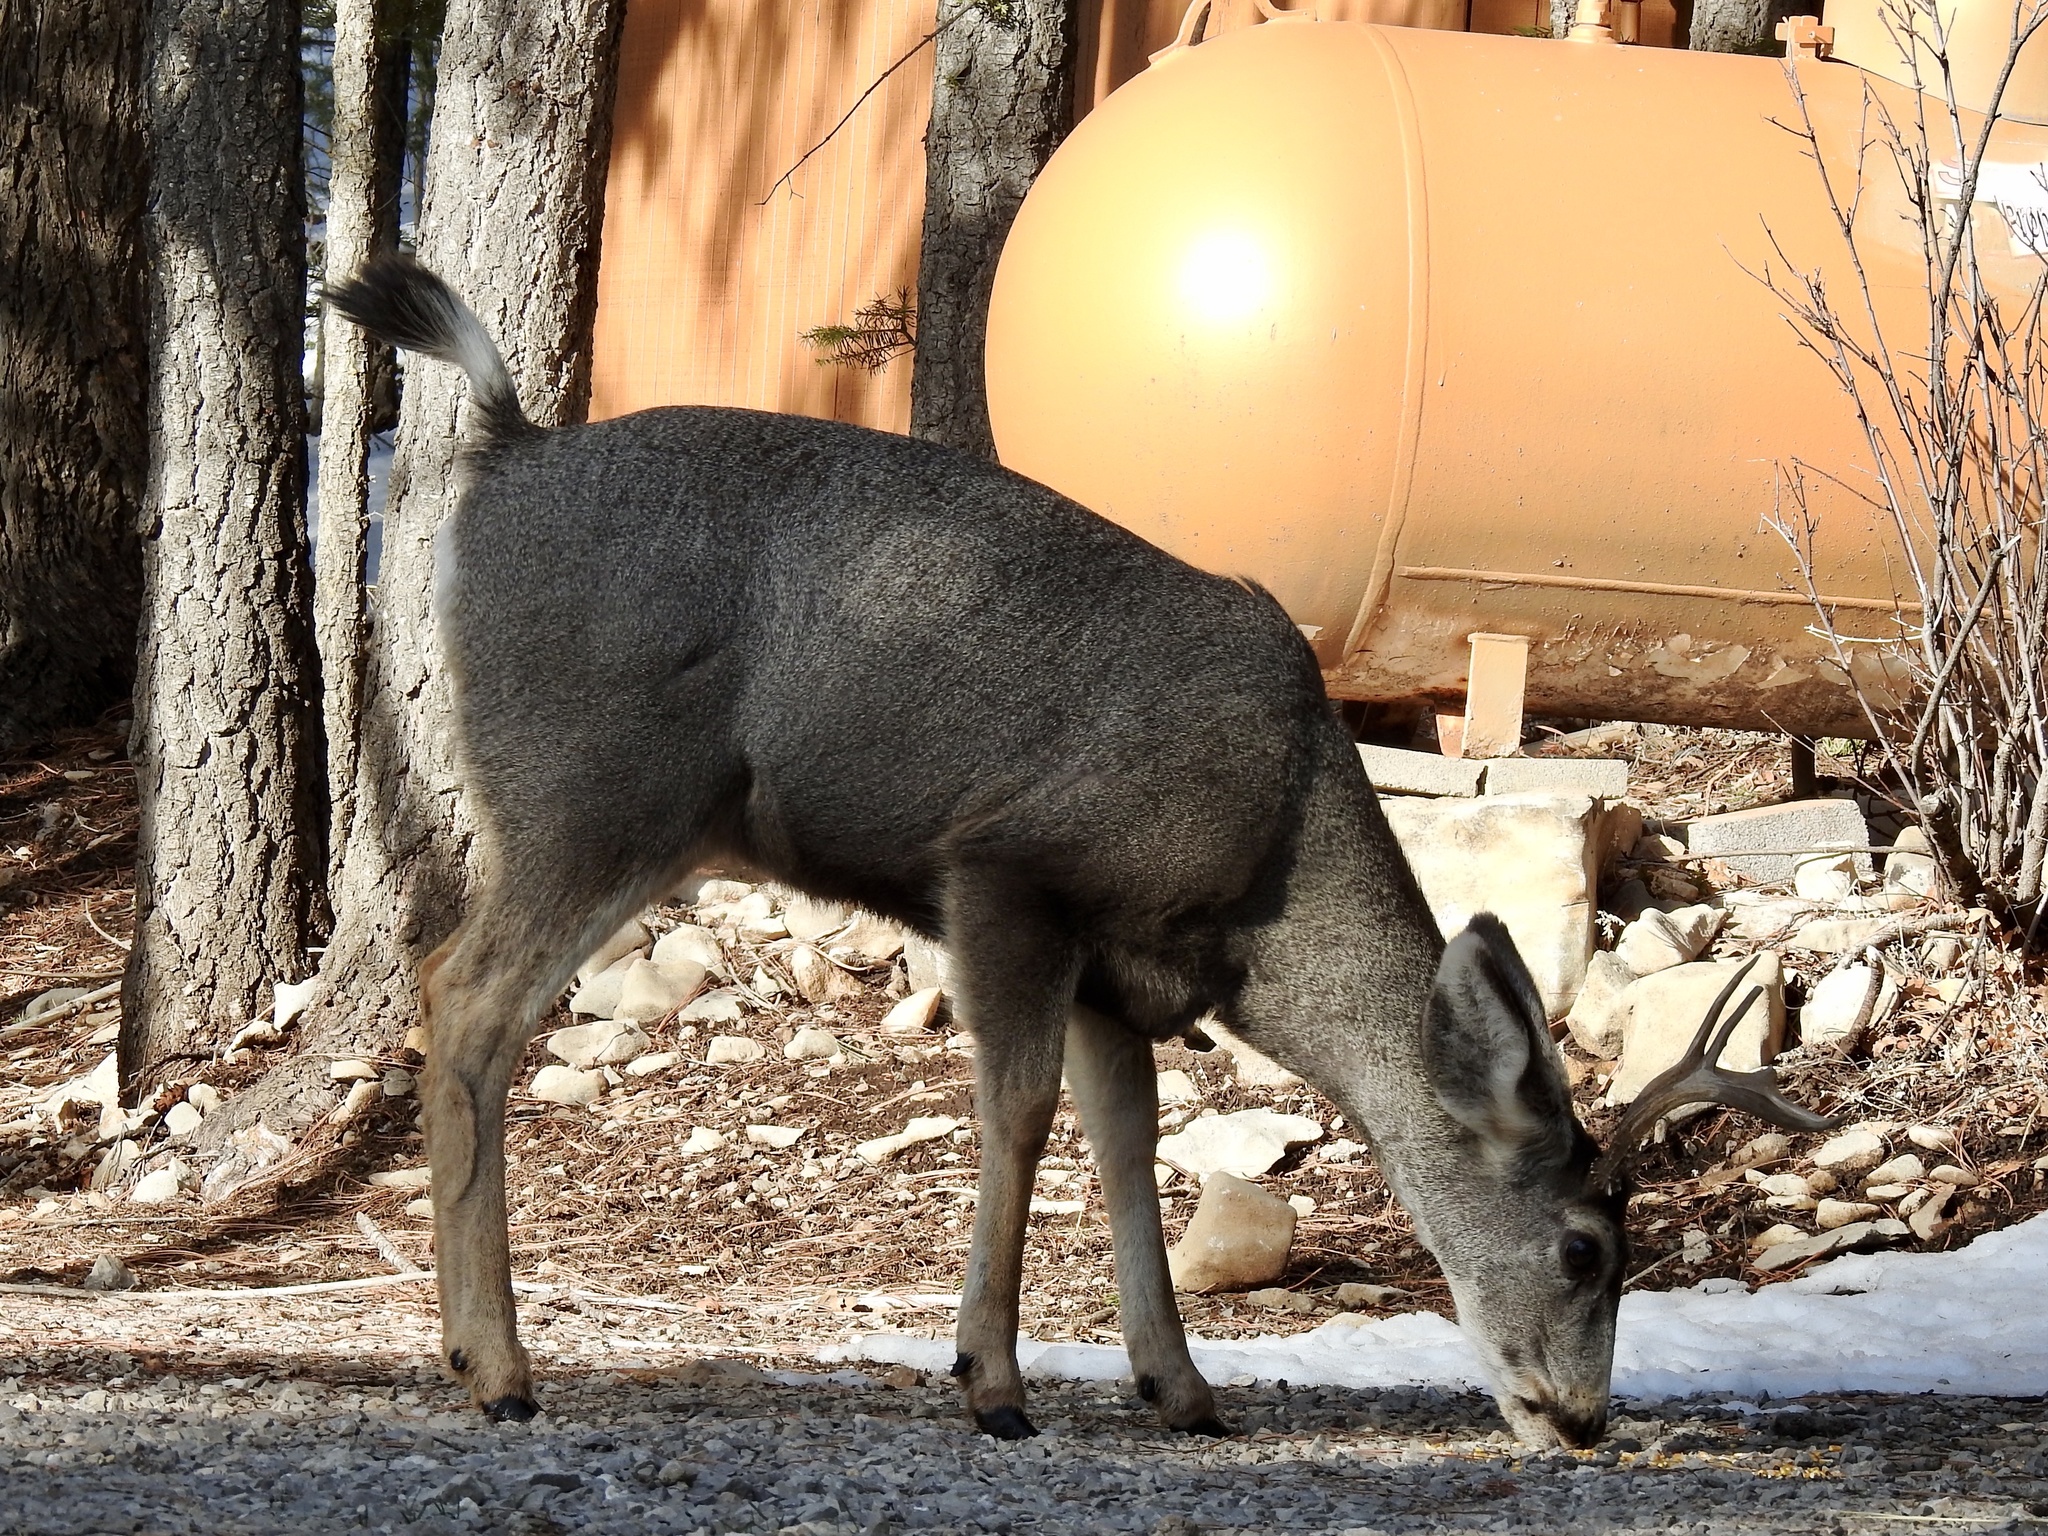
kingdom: Animalia
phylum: Chordata
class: Mammalia
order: Artiodactyla
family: Cervidae
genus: Odocoileus
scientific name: Odocoileus hemionus
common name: Mule deer
